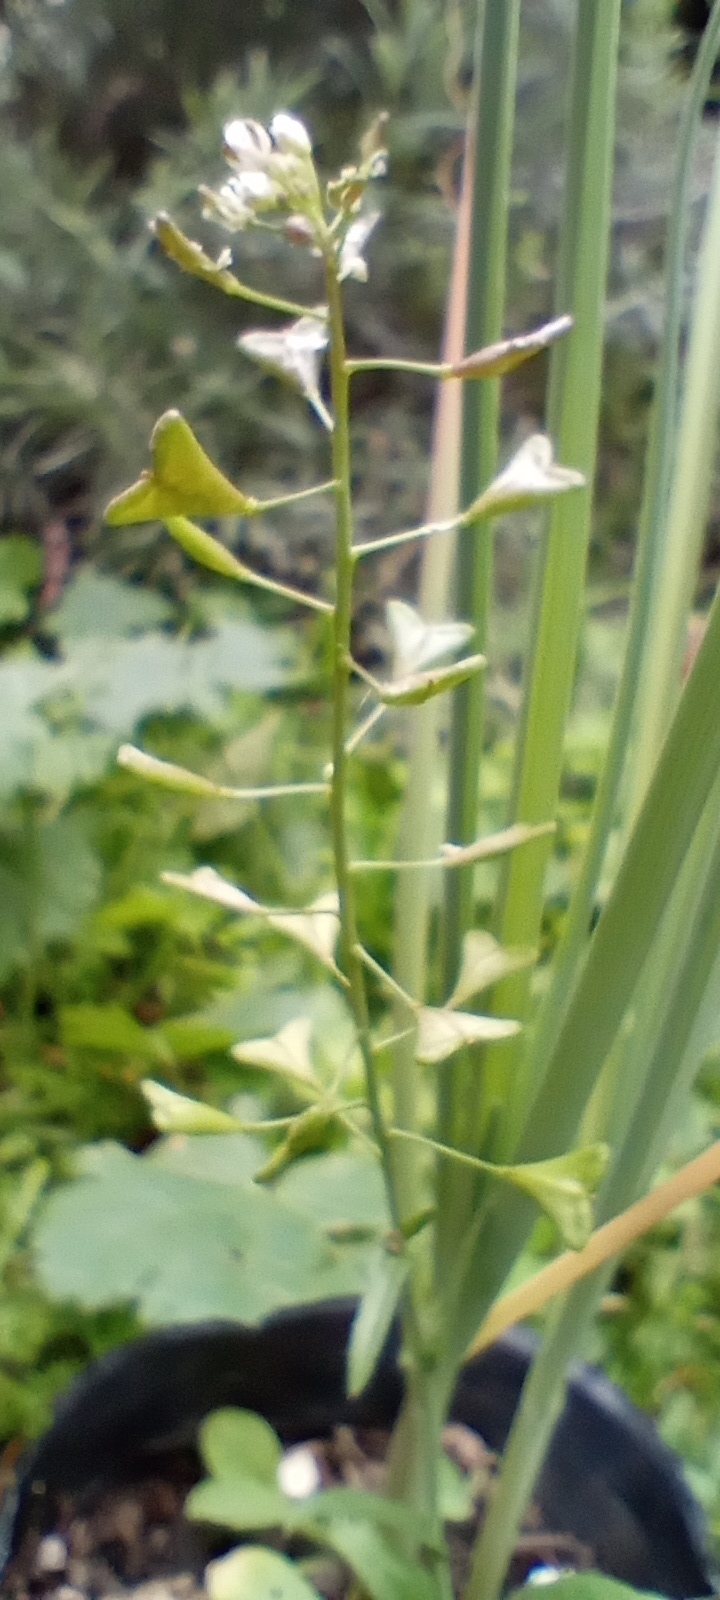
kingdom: Plantae
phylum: Tracheophyta
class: Magnoliopsida
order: Brassicales
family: Brassicaceae
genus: Capsella
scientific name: Capsella bursa-pastoris
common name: Shepherd's purse
